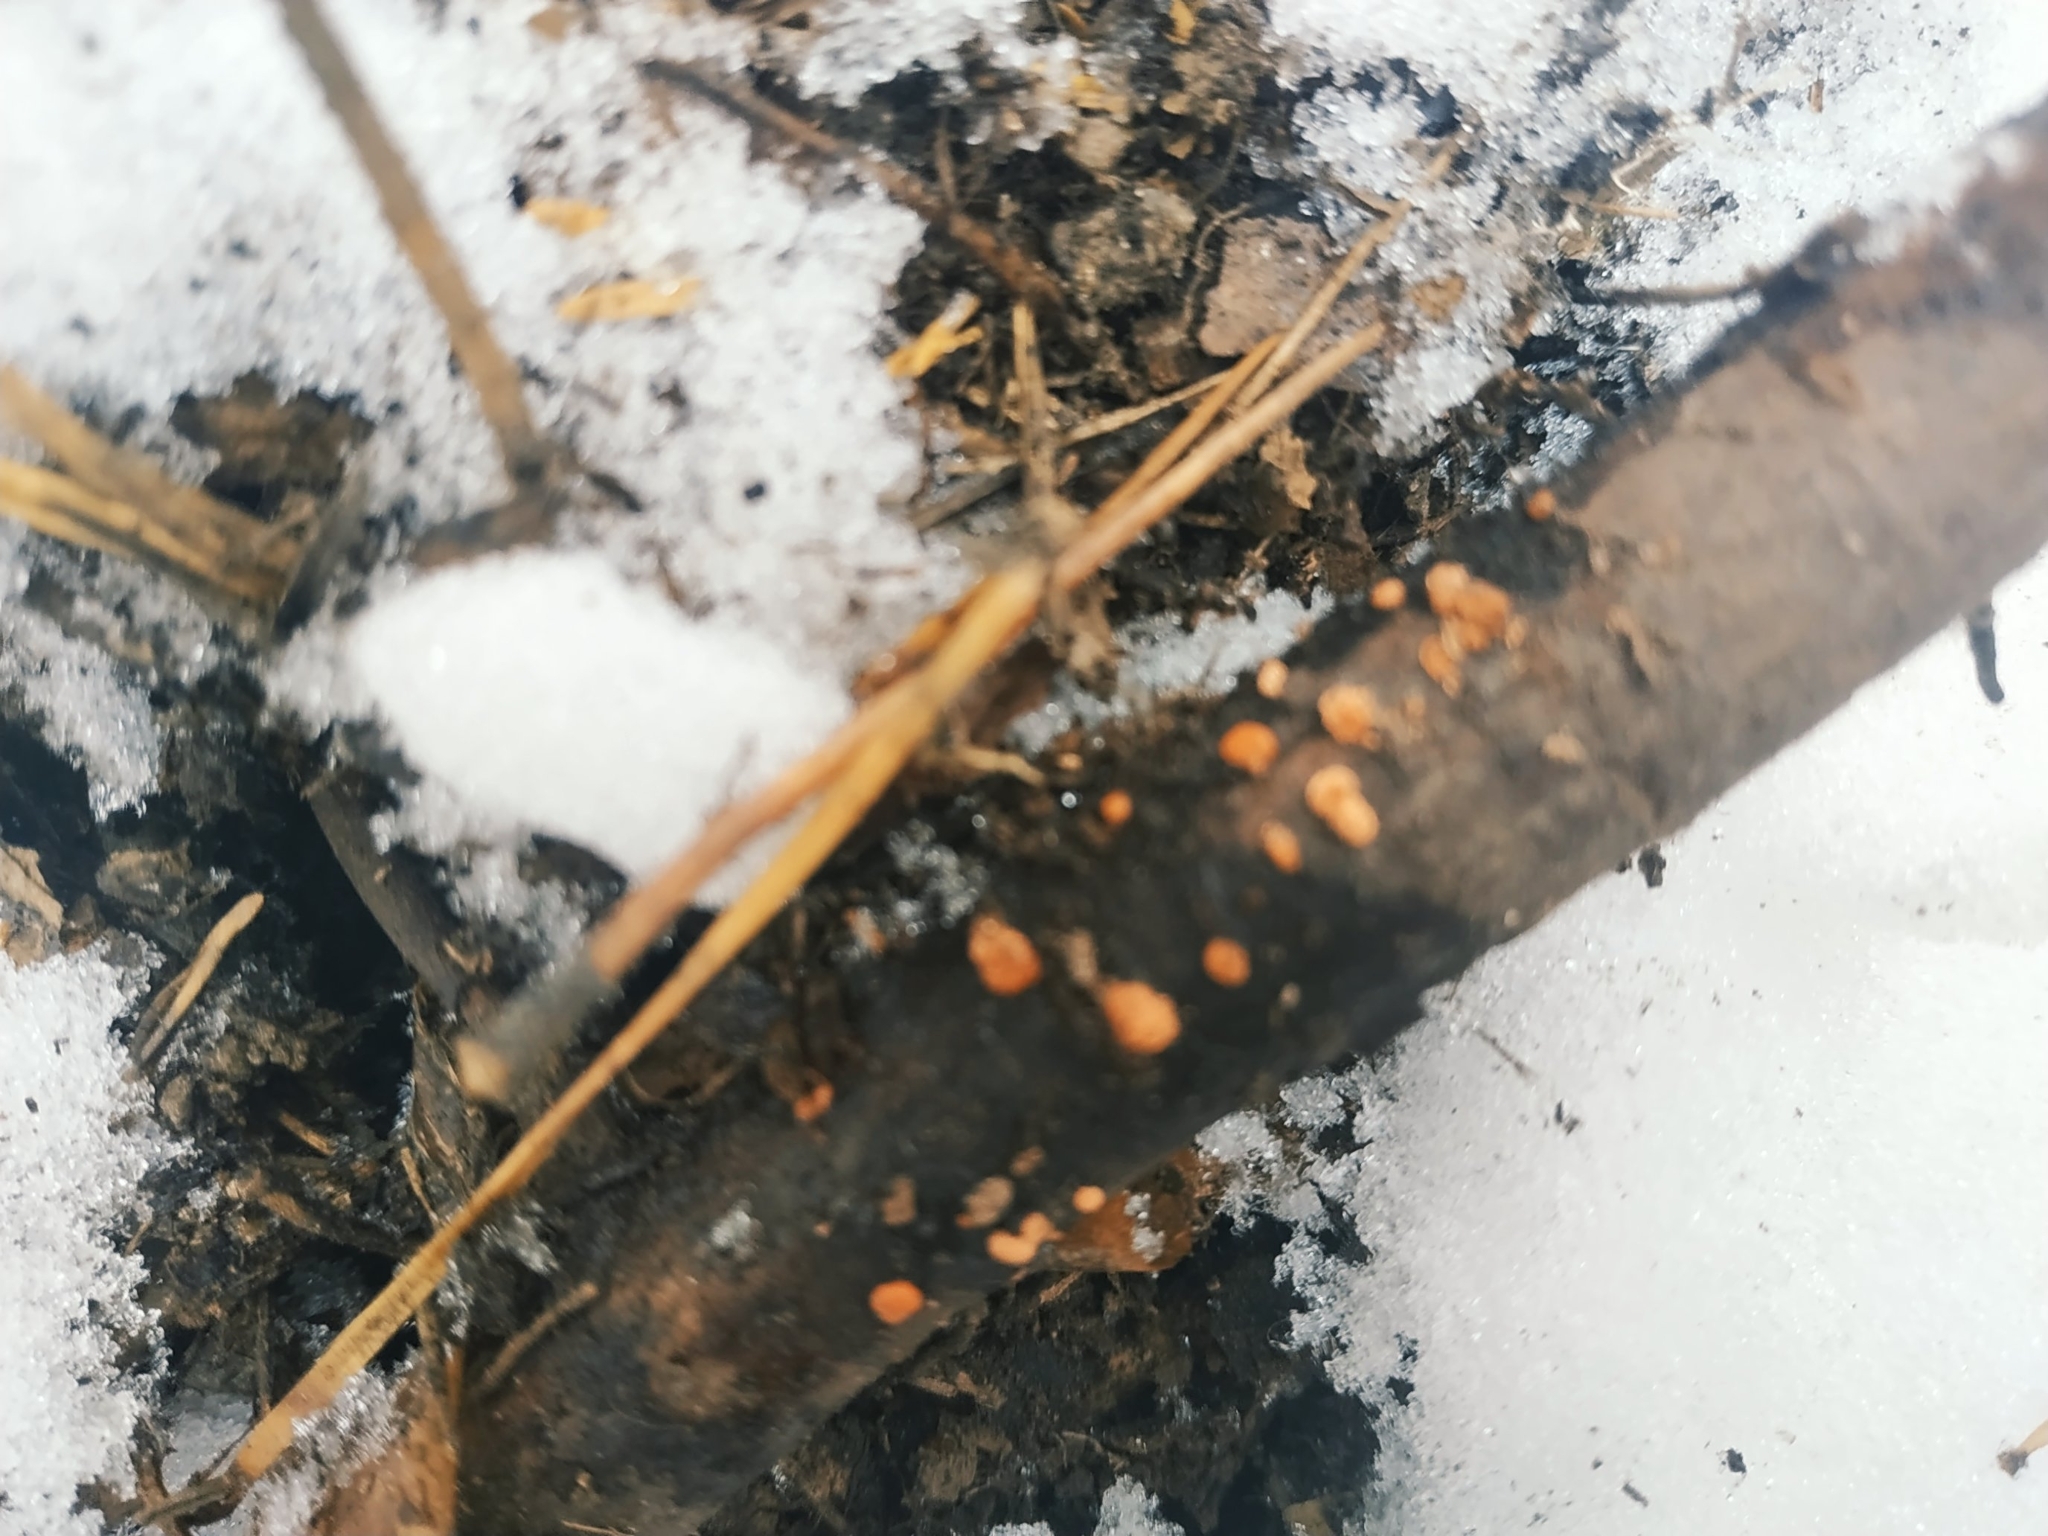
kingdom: Fungi
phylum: Ascomycota
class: Sordariomycetes
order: Hypocreales
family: Nectriaceae
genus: Nectria
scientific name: Nectria cinnabarina
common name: Coral spot
